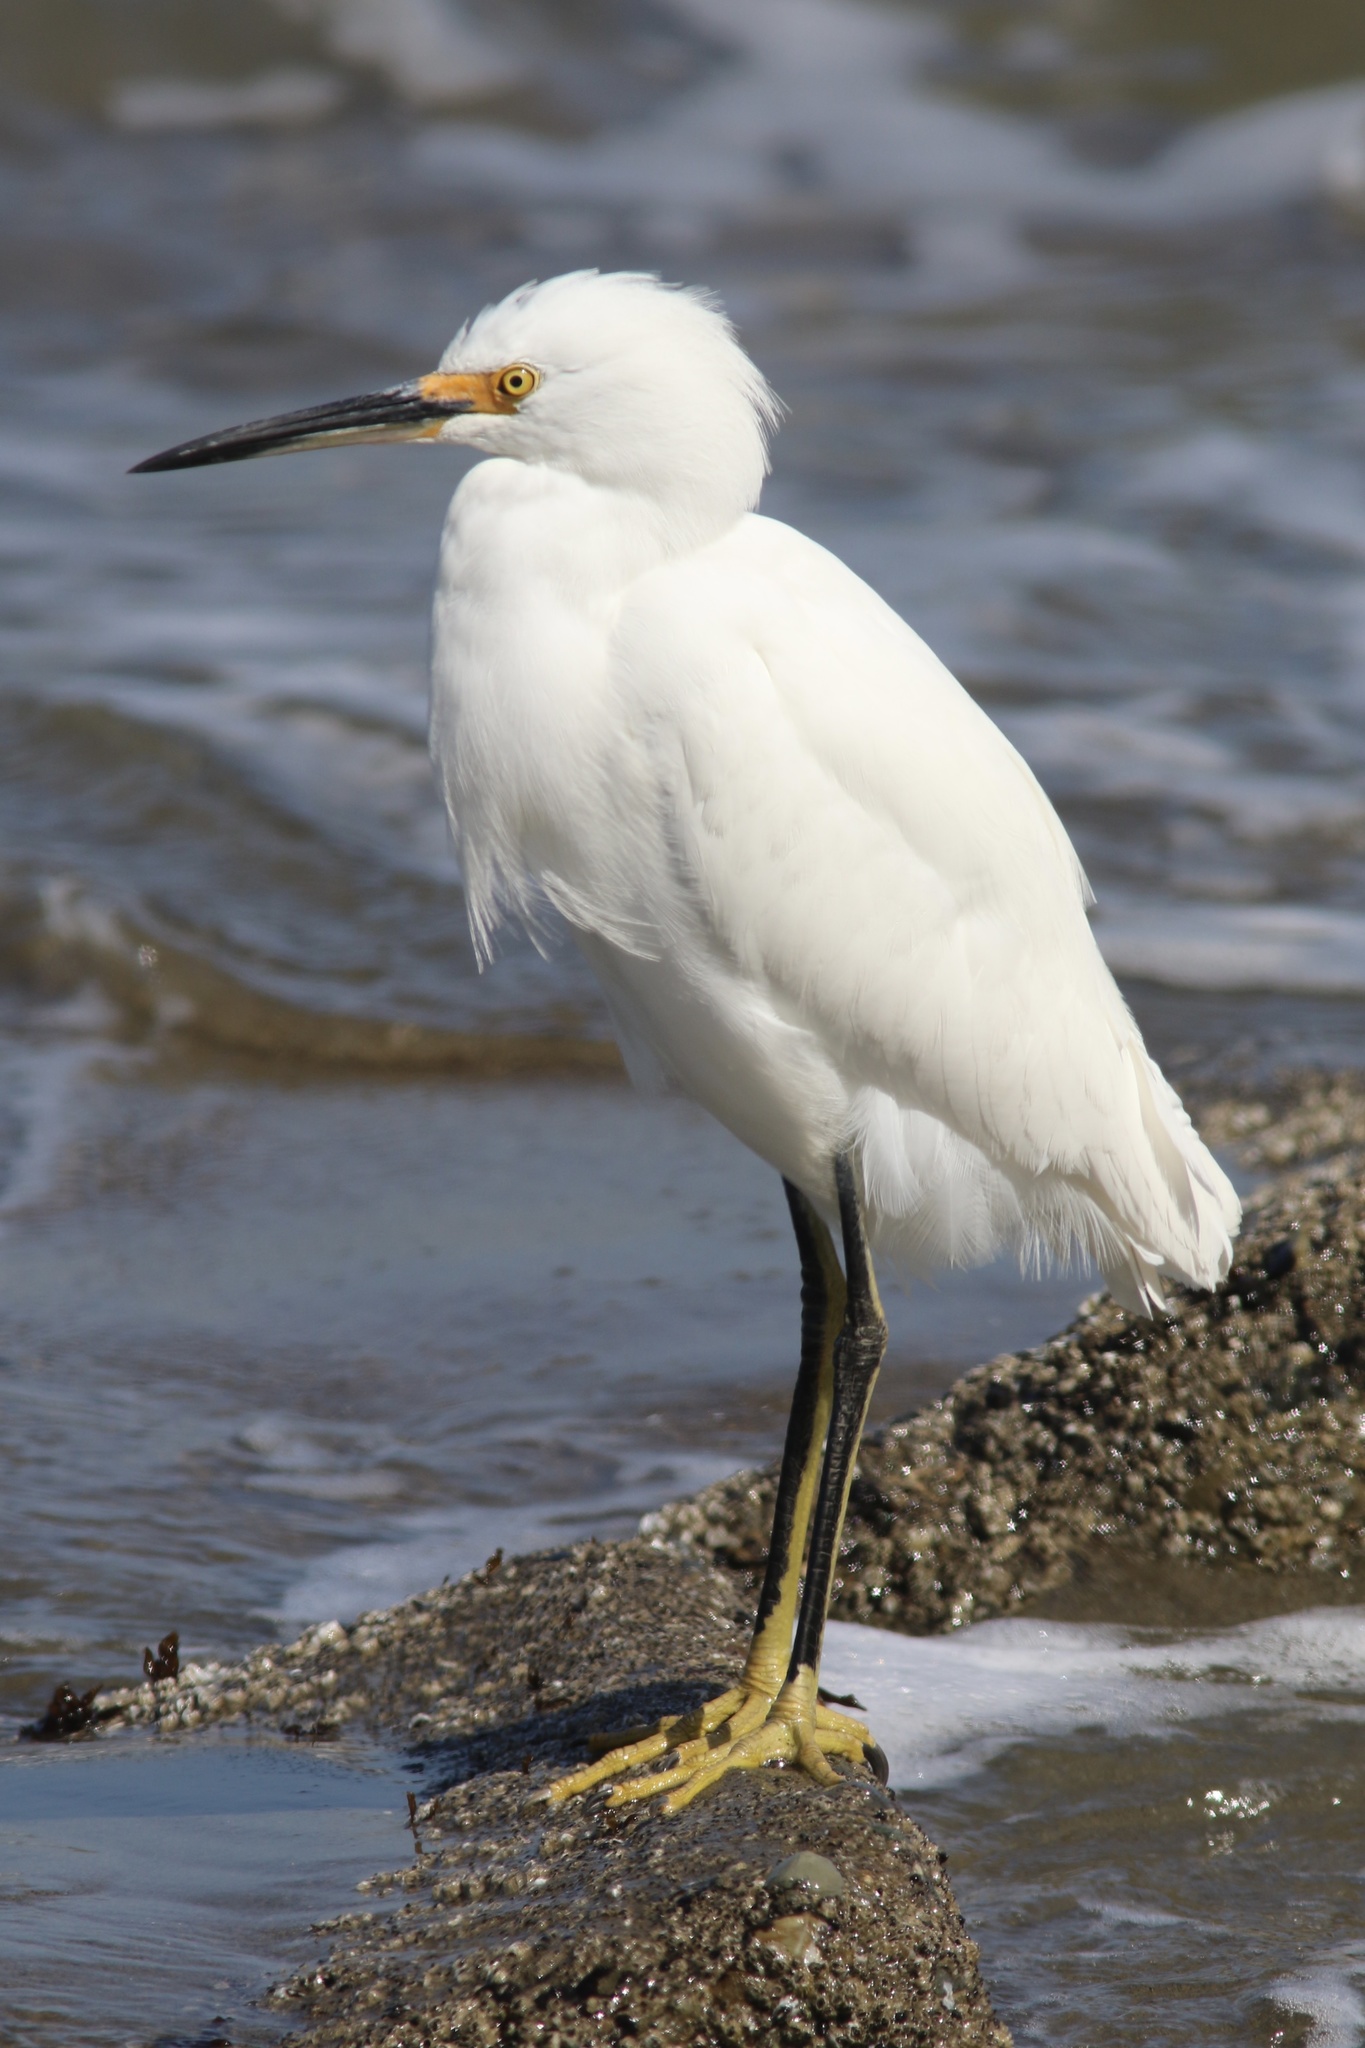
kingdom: Animalia
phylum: Chordata
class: Aves
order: Pelecaniformes
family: Ardeidae
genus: Egretta
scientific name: Egretta thula
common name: Snowy egret
